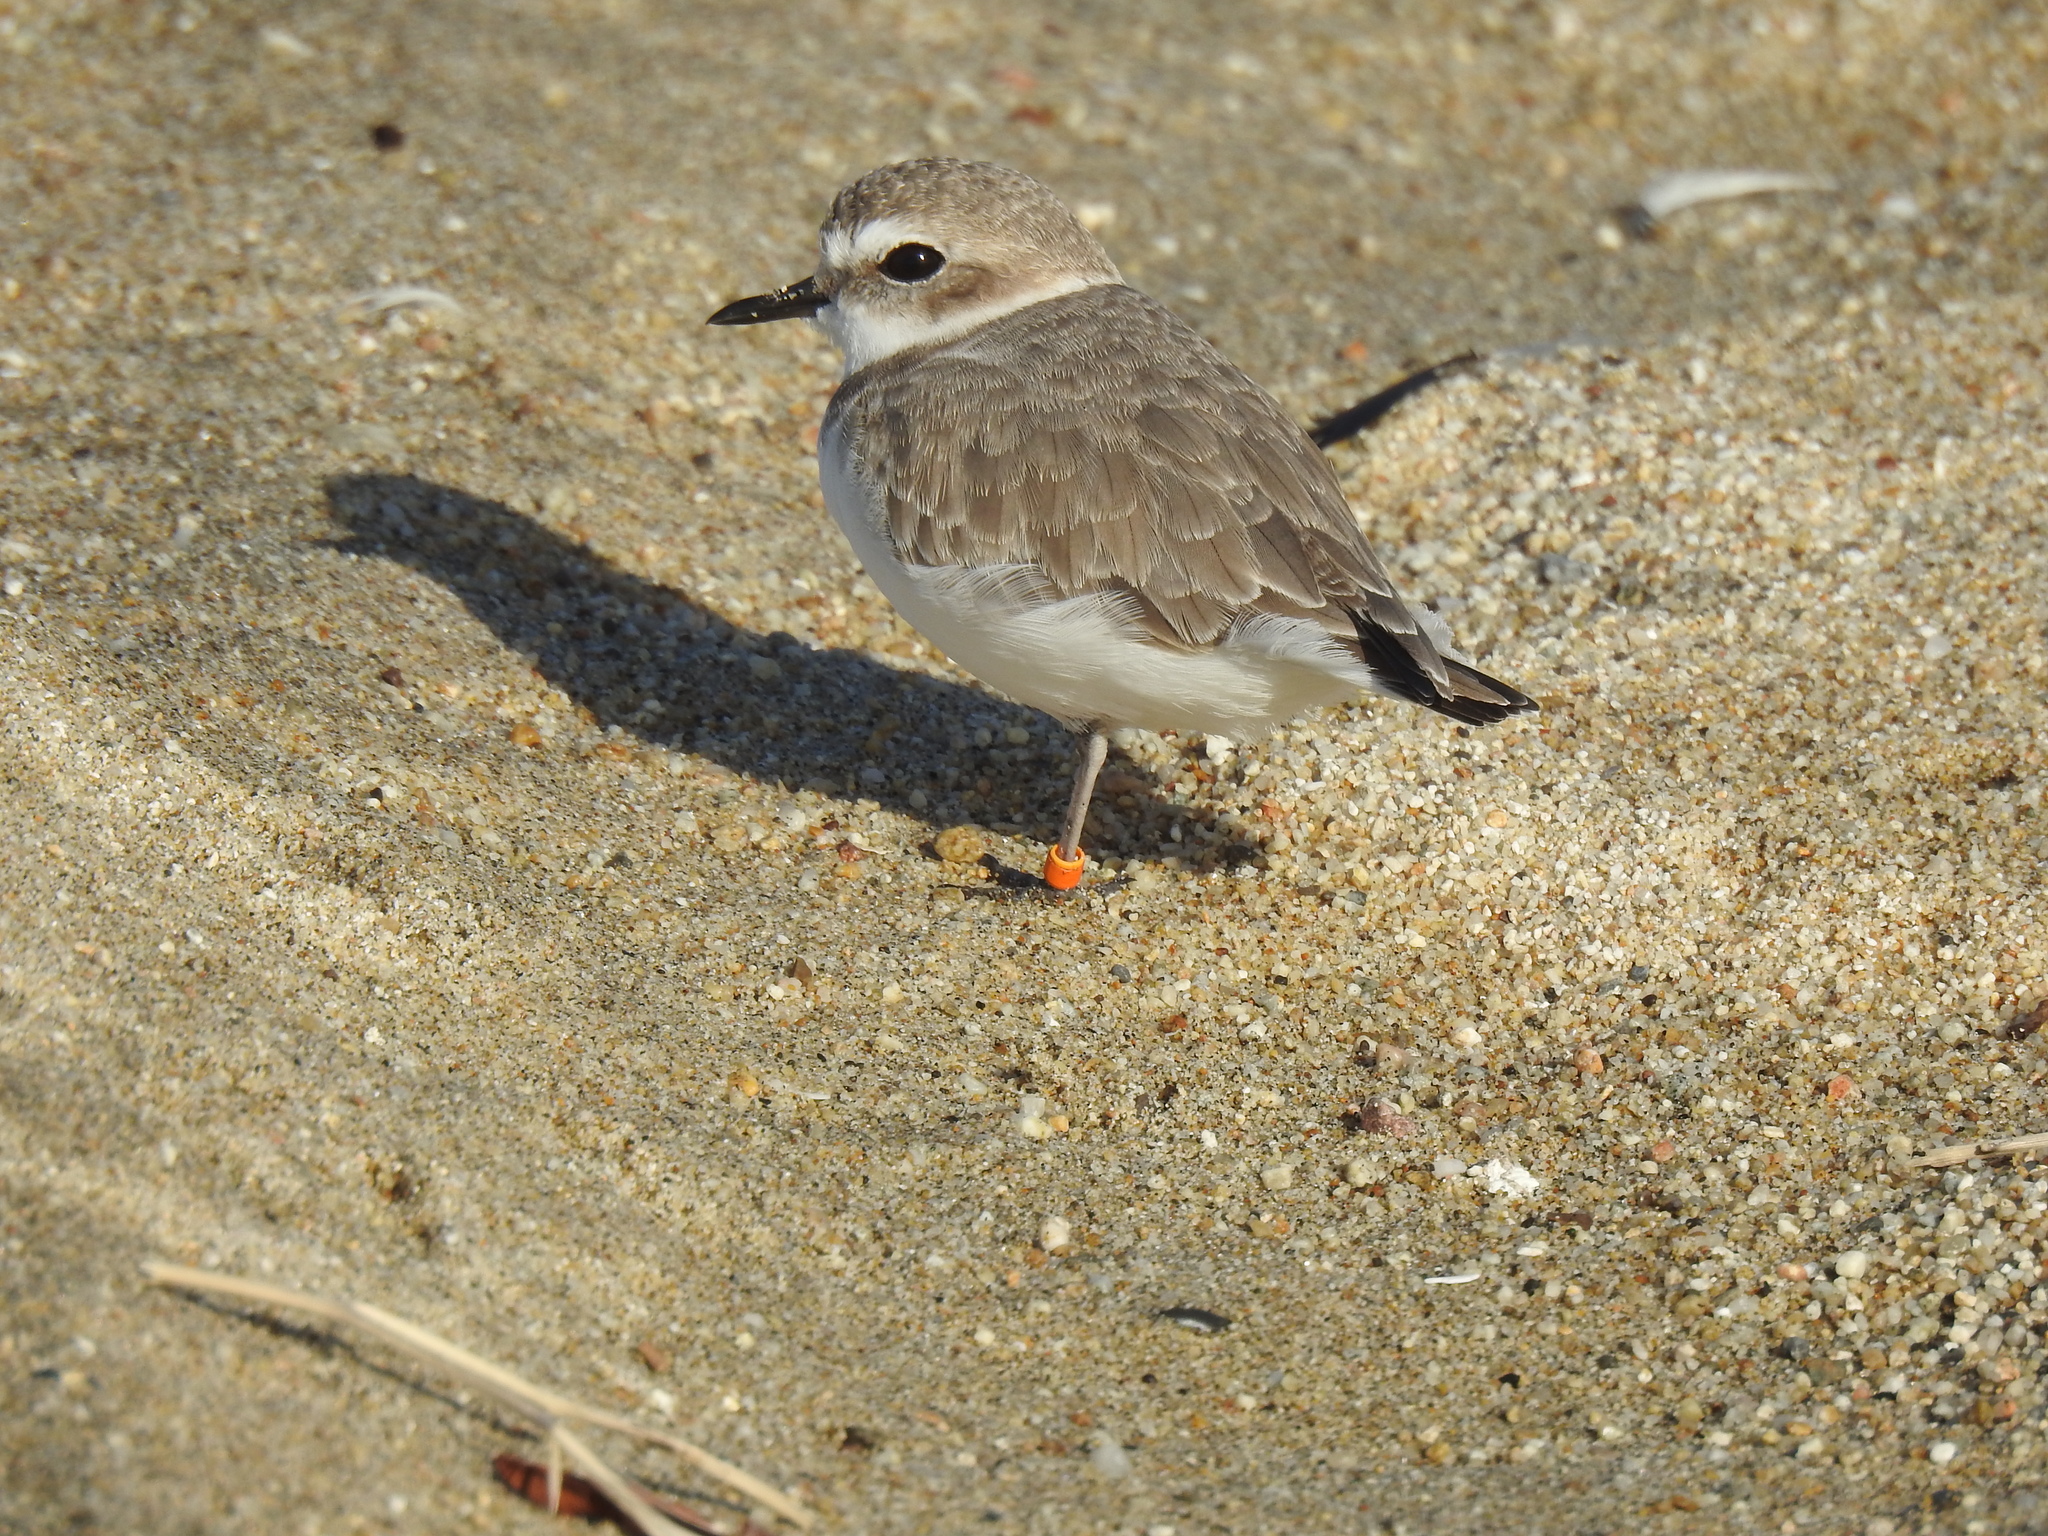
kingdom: Animalia
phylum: Chordata
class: Aves
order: Charadriiformes
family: Charadriidae
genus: Anarhynchus
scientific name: Anarhynchus
